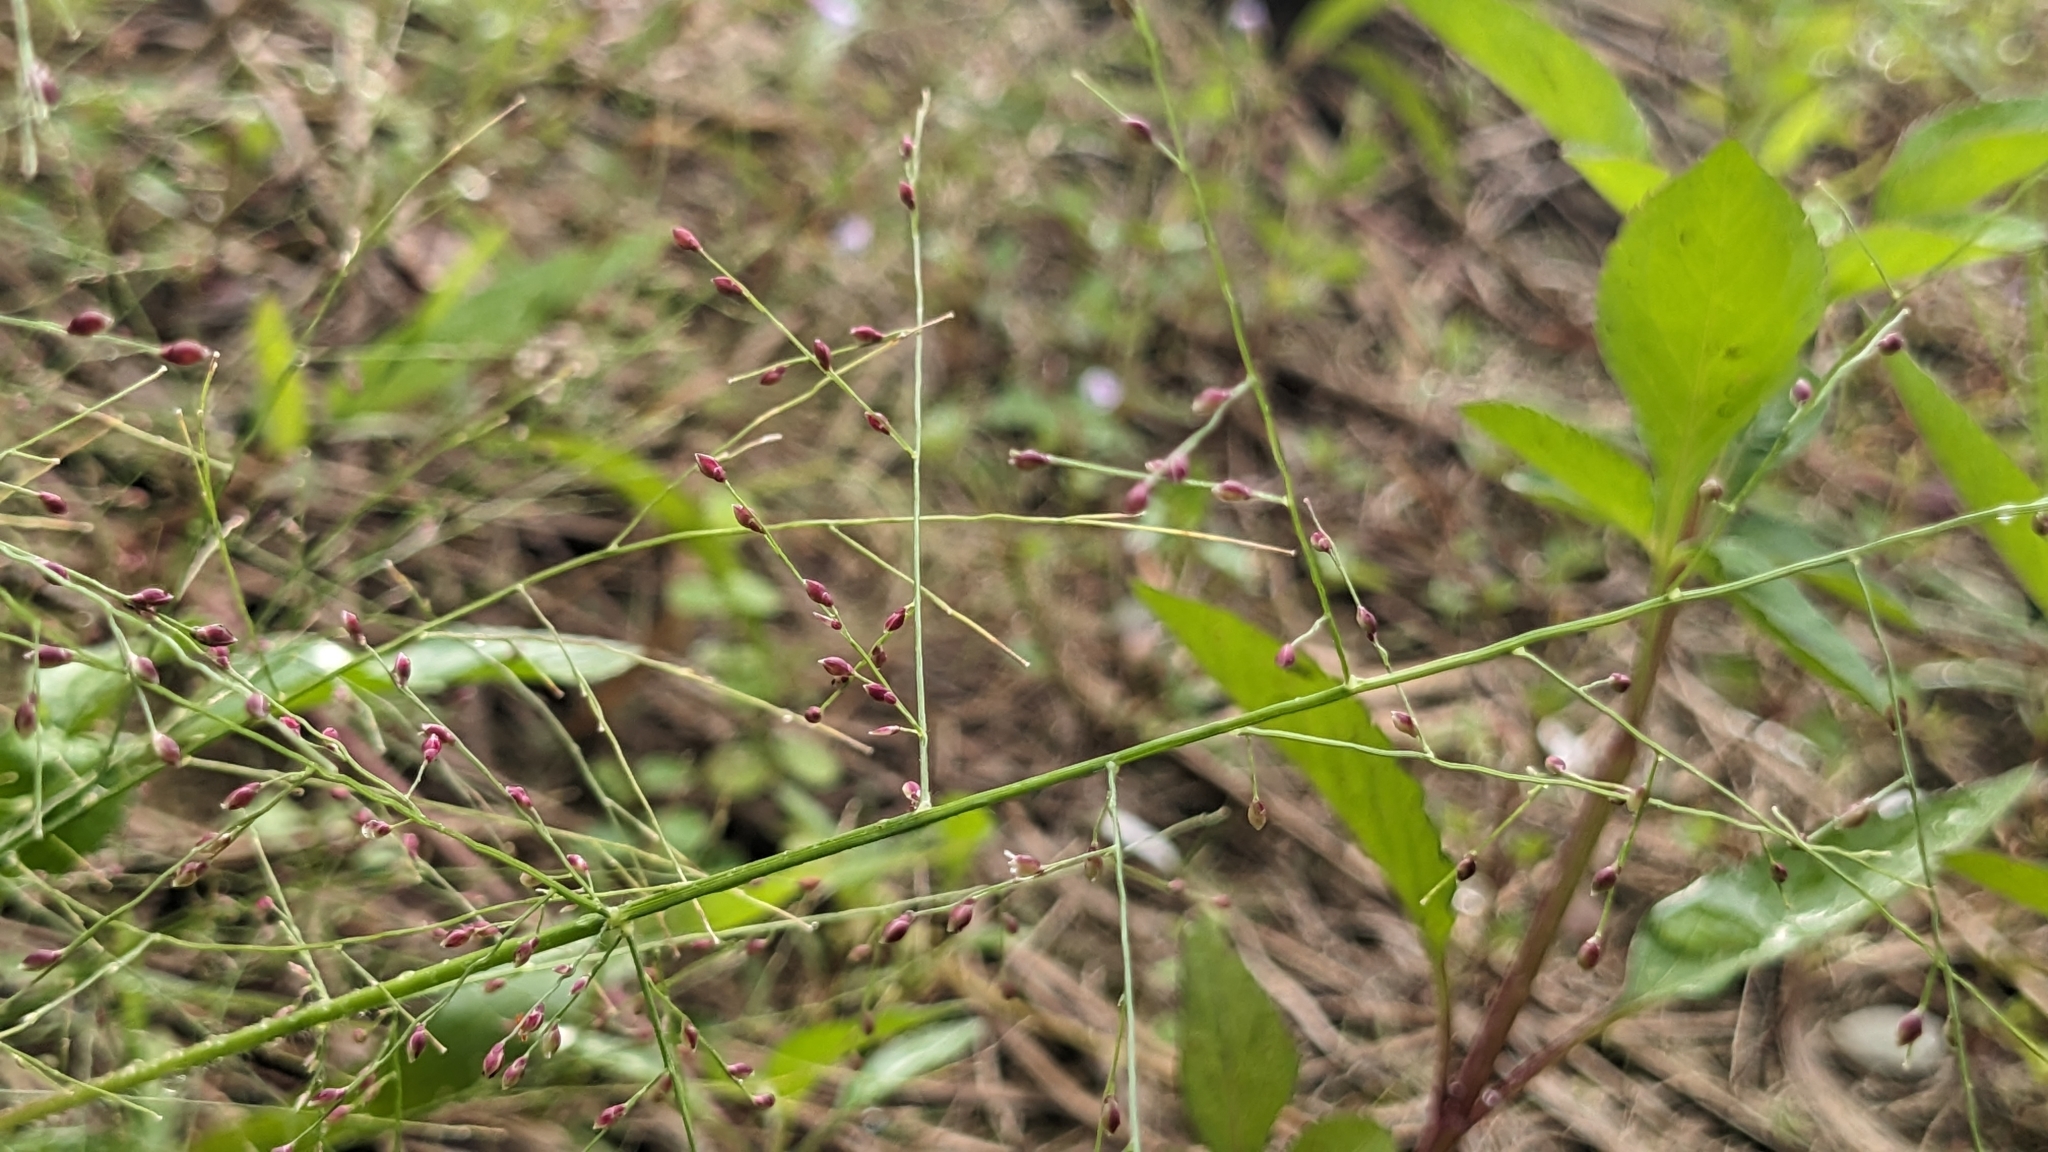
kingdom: Plantae
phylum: Tracheophyta
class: Liliopsida
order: Poales
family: Poaceae
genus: Panicum
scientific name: Panicum luzonense
